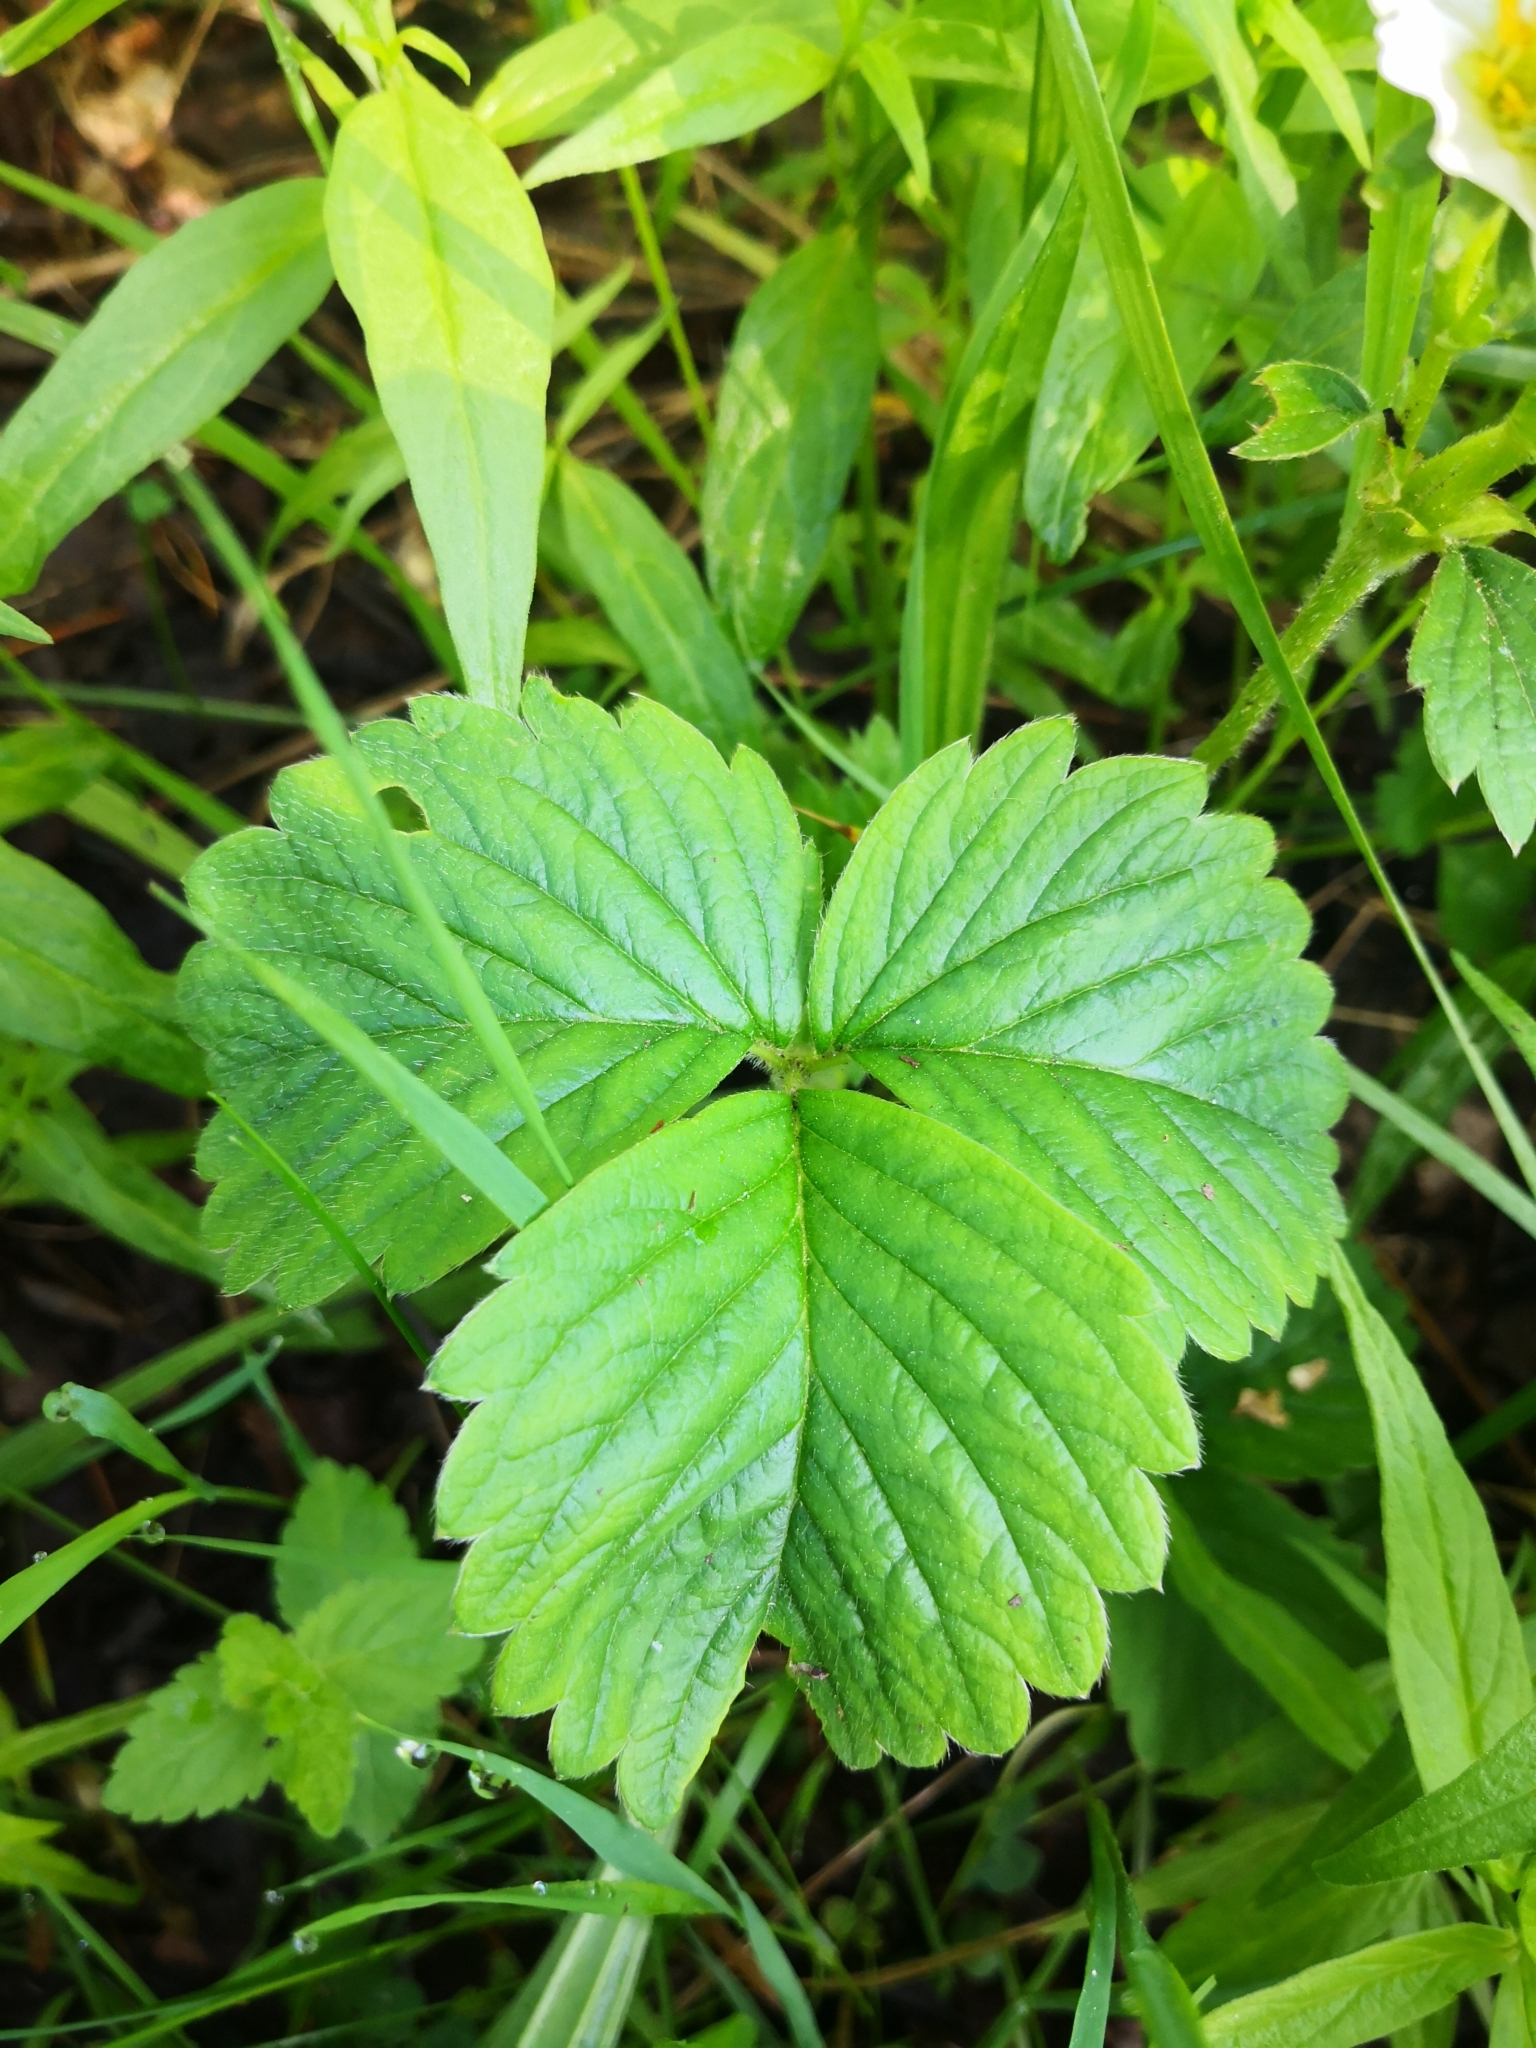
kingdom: Plantae
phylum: Tracheophyta
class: Magnoliopsida
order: Rosales
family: Rosaceae
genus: Fragaria
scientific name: Fragaria ananassa
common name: Garden strawberry
